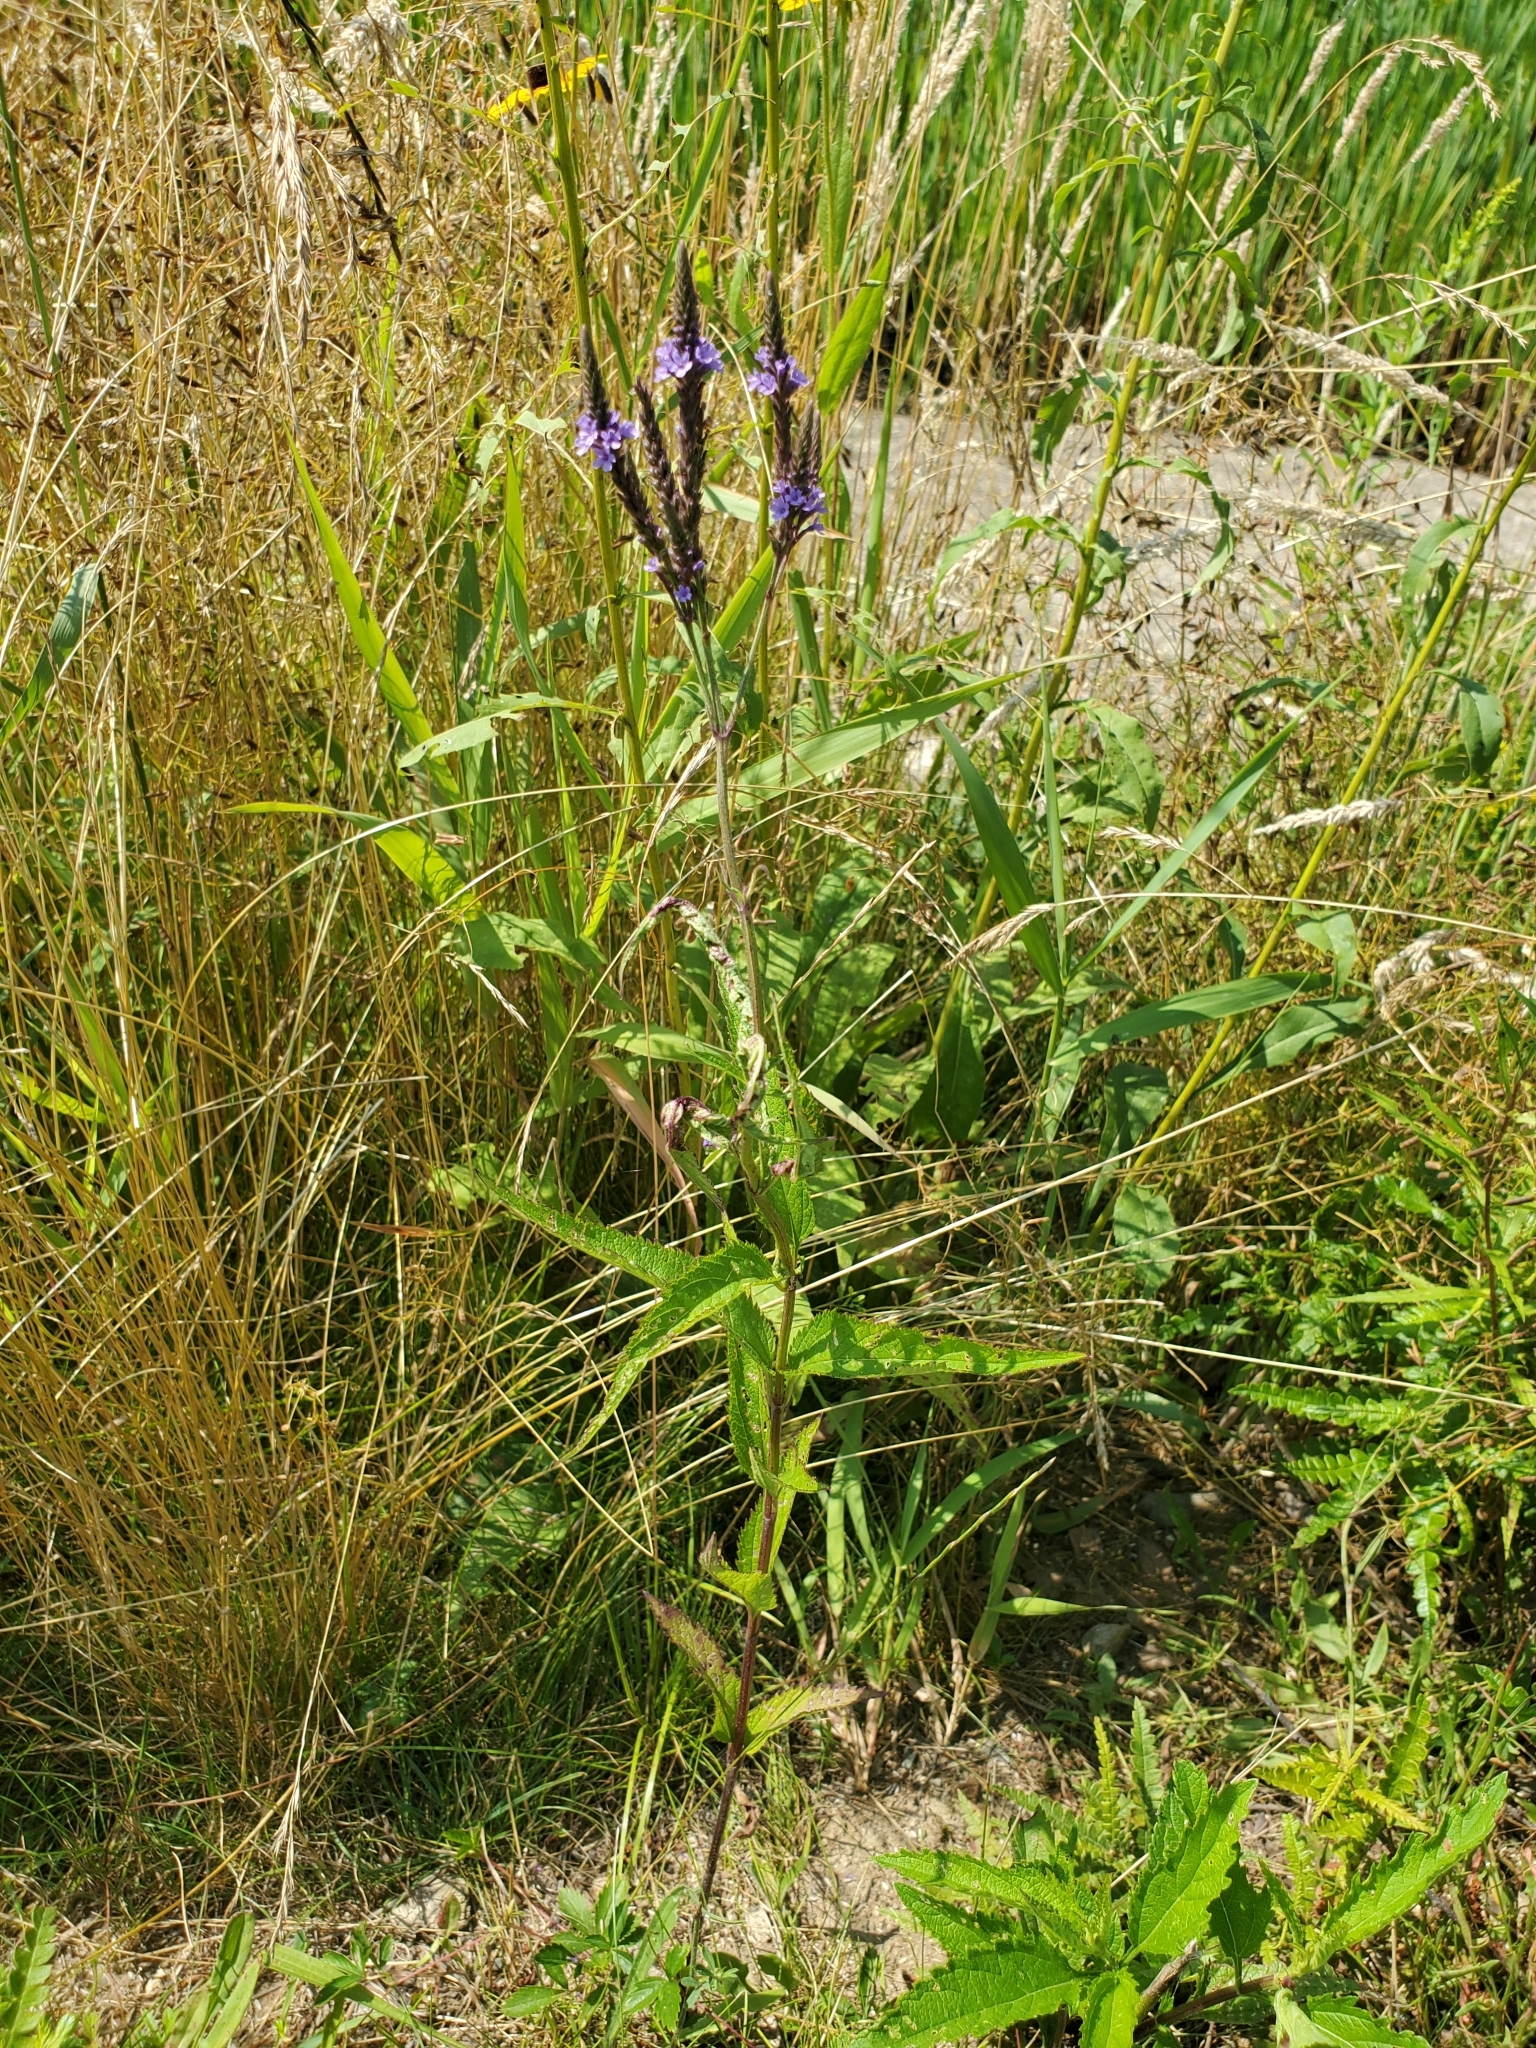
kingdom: Plantae
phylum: Tracheophyta
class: Magnoliopsida
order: Lamiales
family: Verbenaceae
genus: Verbena
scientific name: Verbena hastata
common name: American blue vervain
